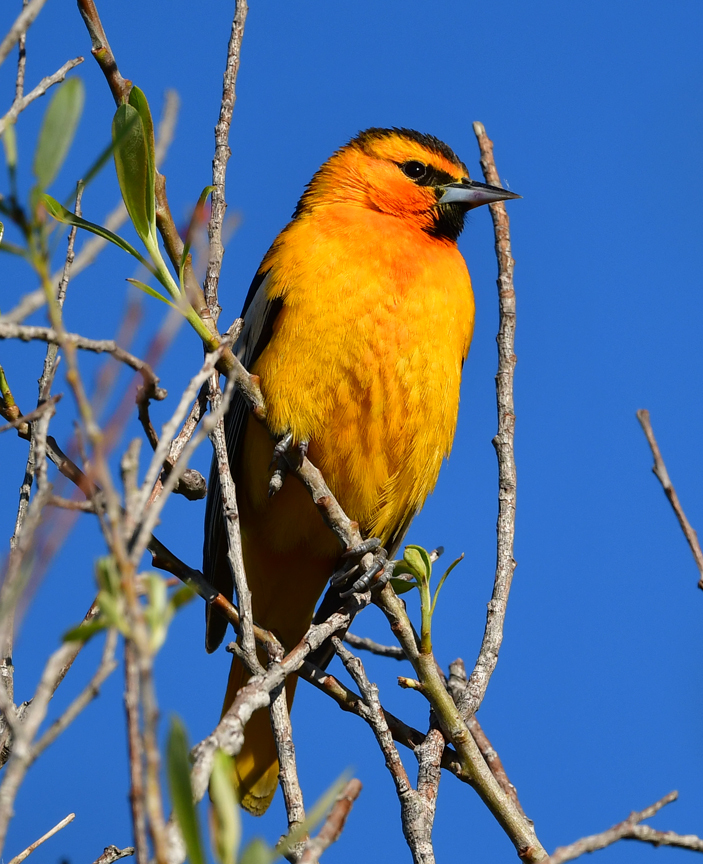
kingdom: Animalia
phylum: Chordata
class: Aves
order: Passeriformes
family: Icteridae
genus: Icterus
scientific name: Icterus bullockii
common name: Bullock's oriole
